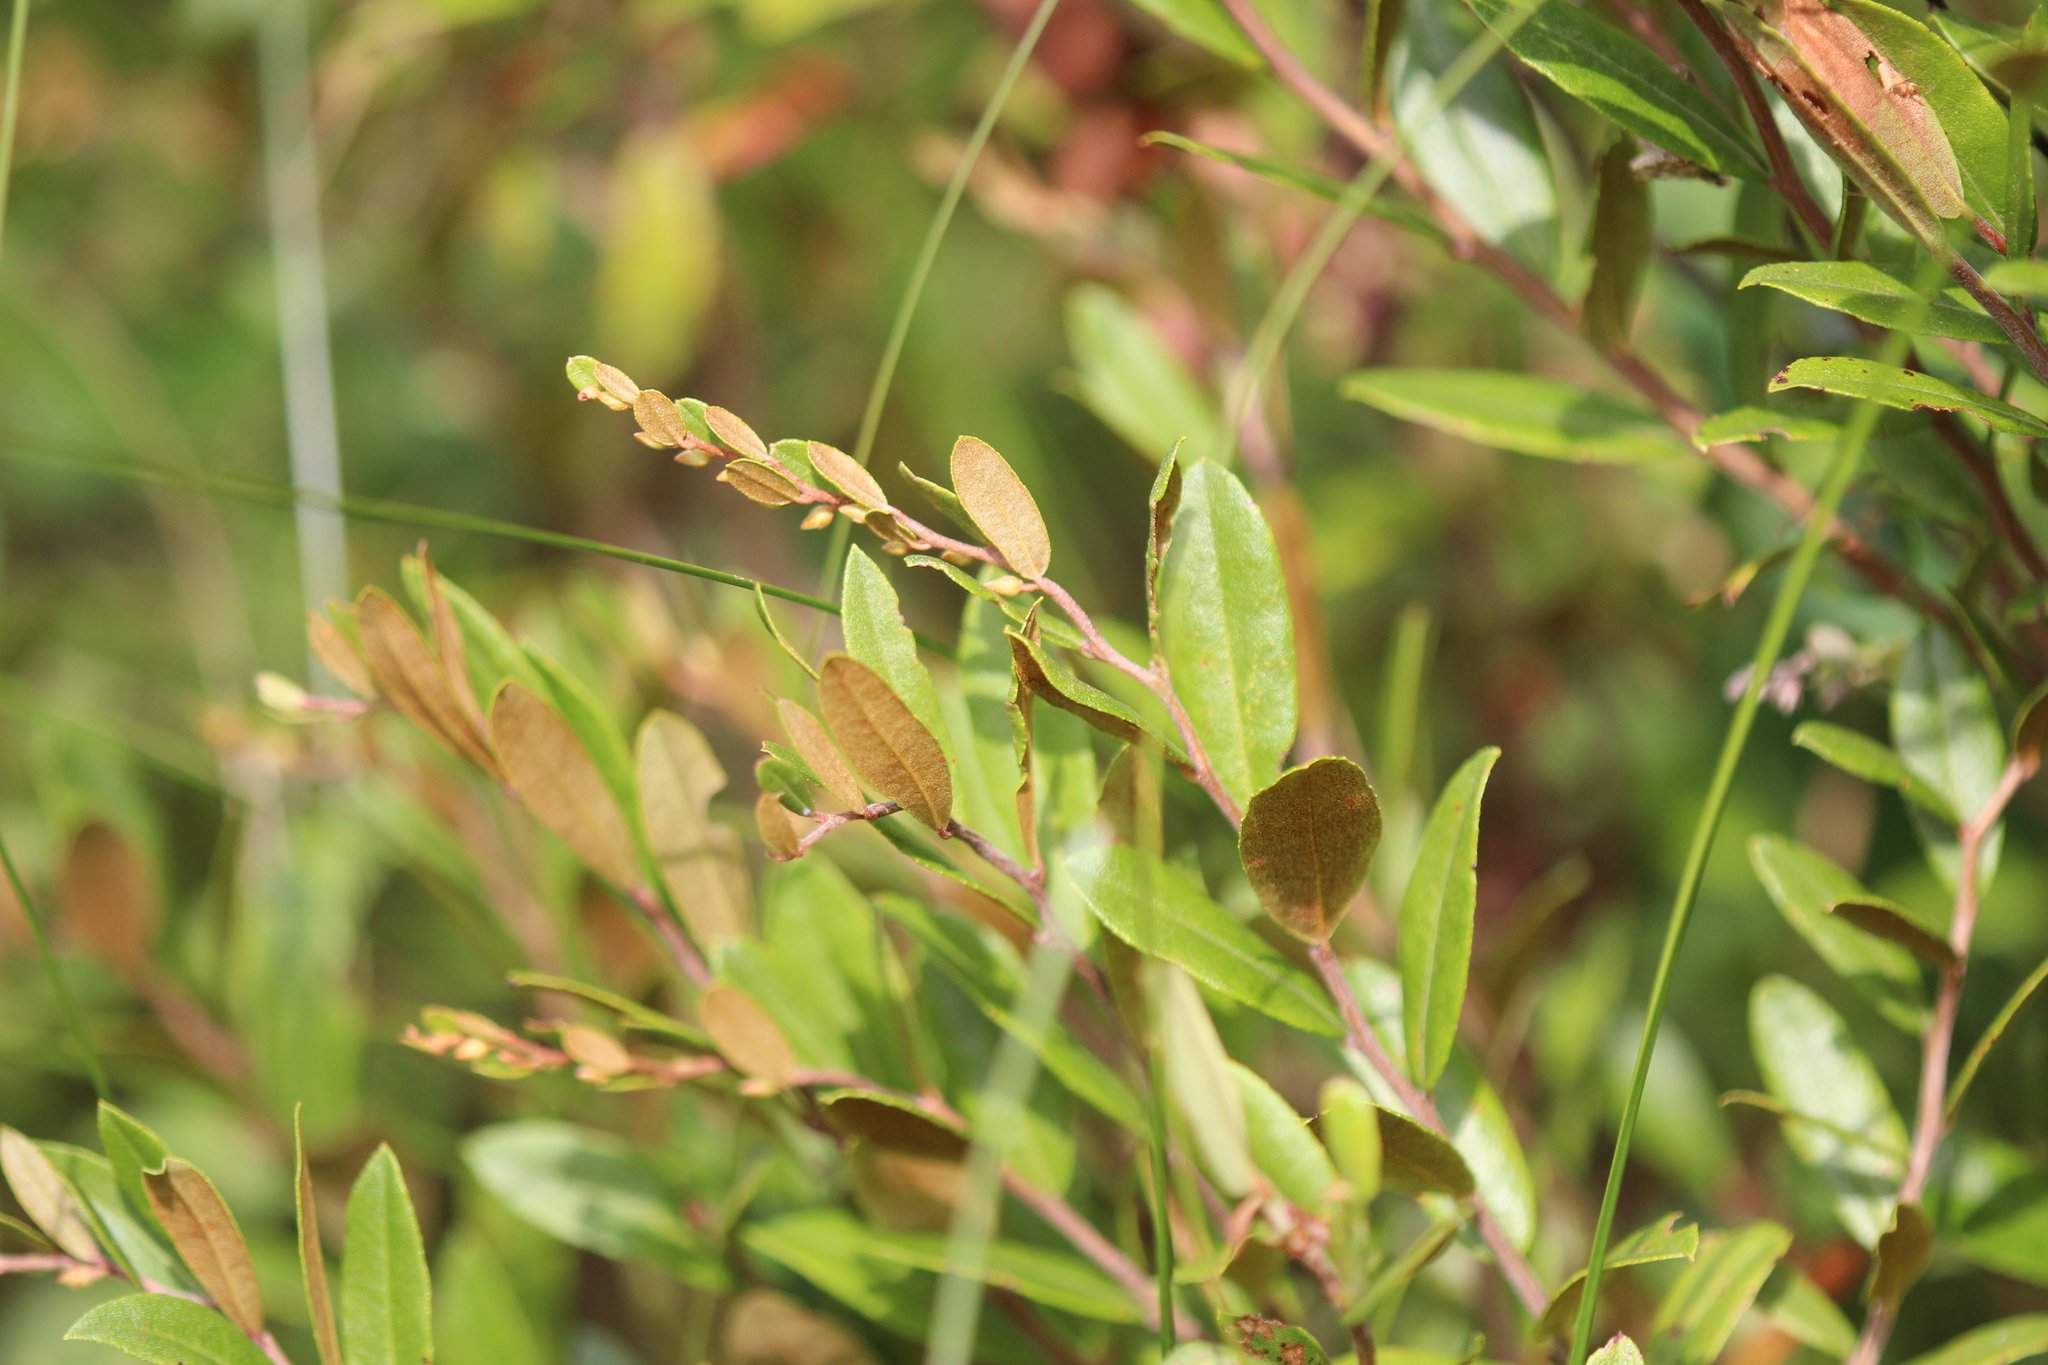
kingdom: Plantae
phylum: Tracheophyta
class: Magnoliopsida
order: Ericales
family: Ericaceae
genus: Chamaedaphne
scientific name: Chamaedaphne calyculata
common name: Leatherleaf
